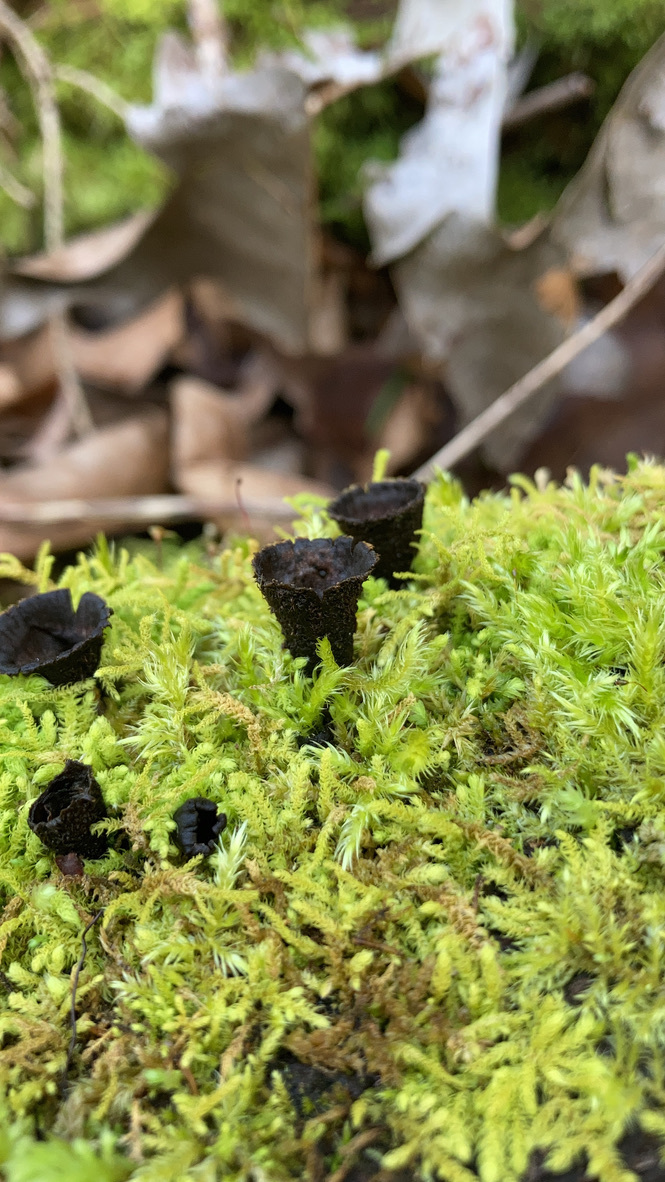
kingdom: Fungi
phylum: Basidiomycota
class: Agaricomycetes
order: Agaricales
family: Agaricaceae
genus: Cyathus
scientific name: Cyathus striatus
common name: Fluted bird's nest
